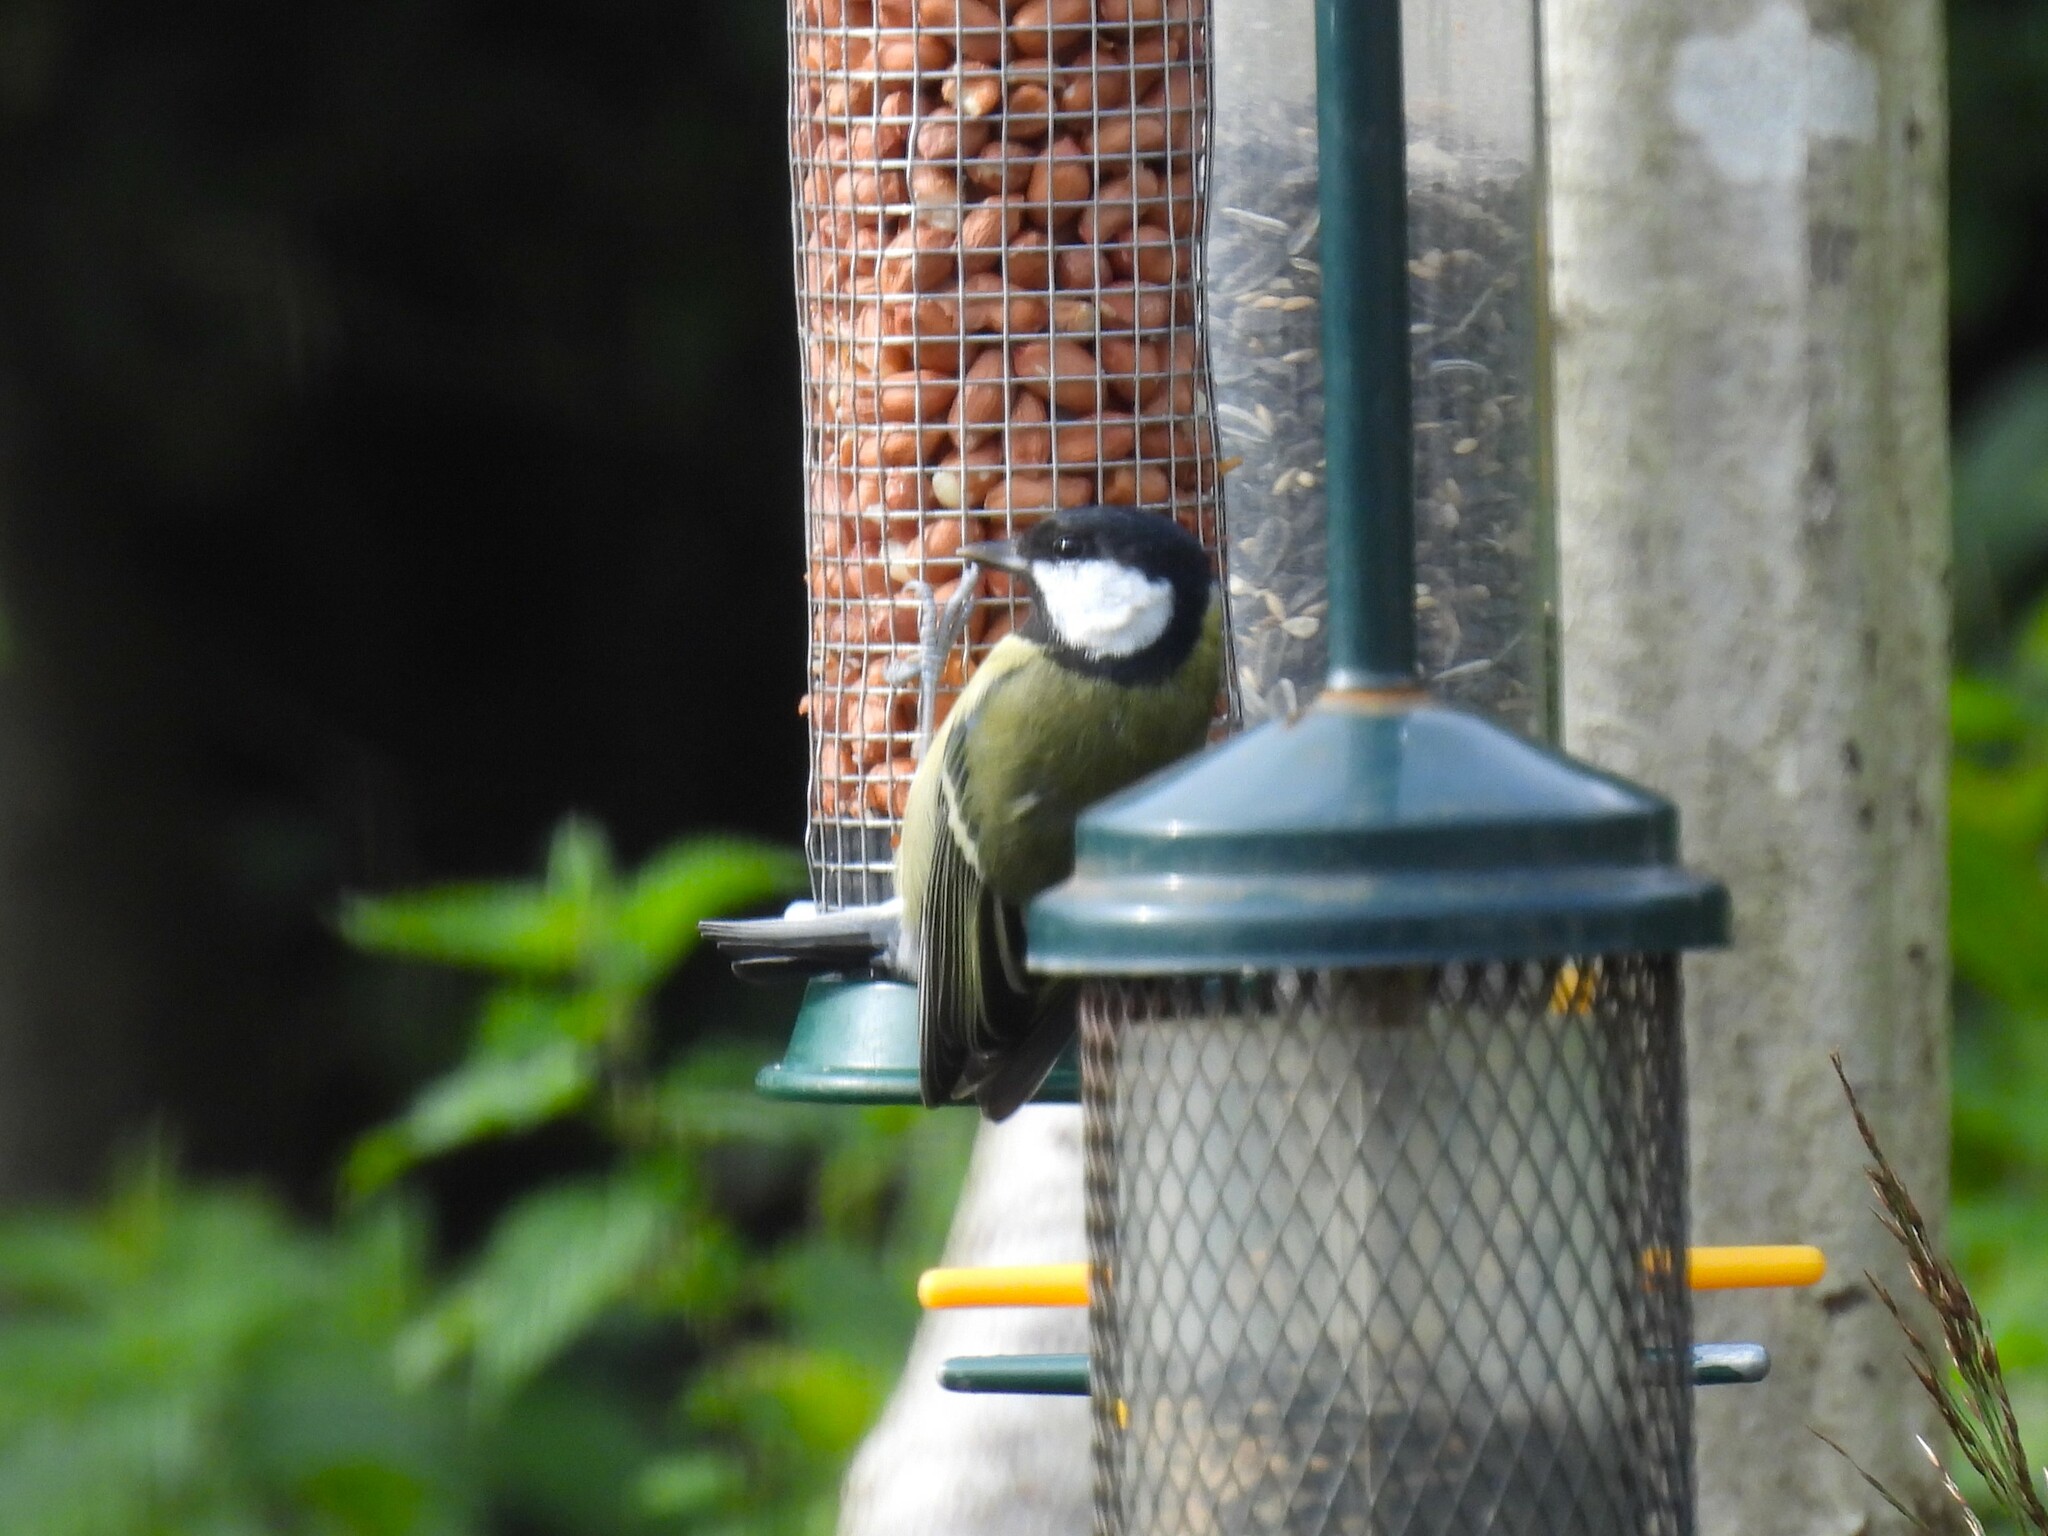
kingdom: Animalia
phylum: Chordata
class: Aves
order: Passeriformes
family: Paridae
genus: Parus
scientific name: Parus major
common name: Great tit
